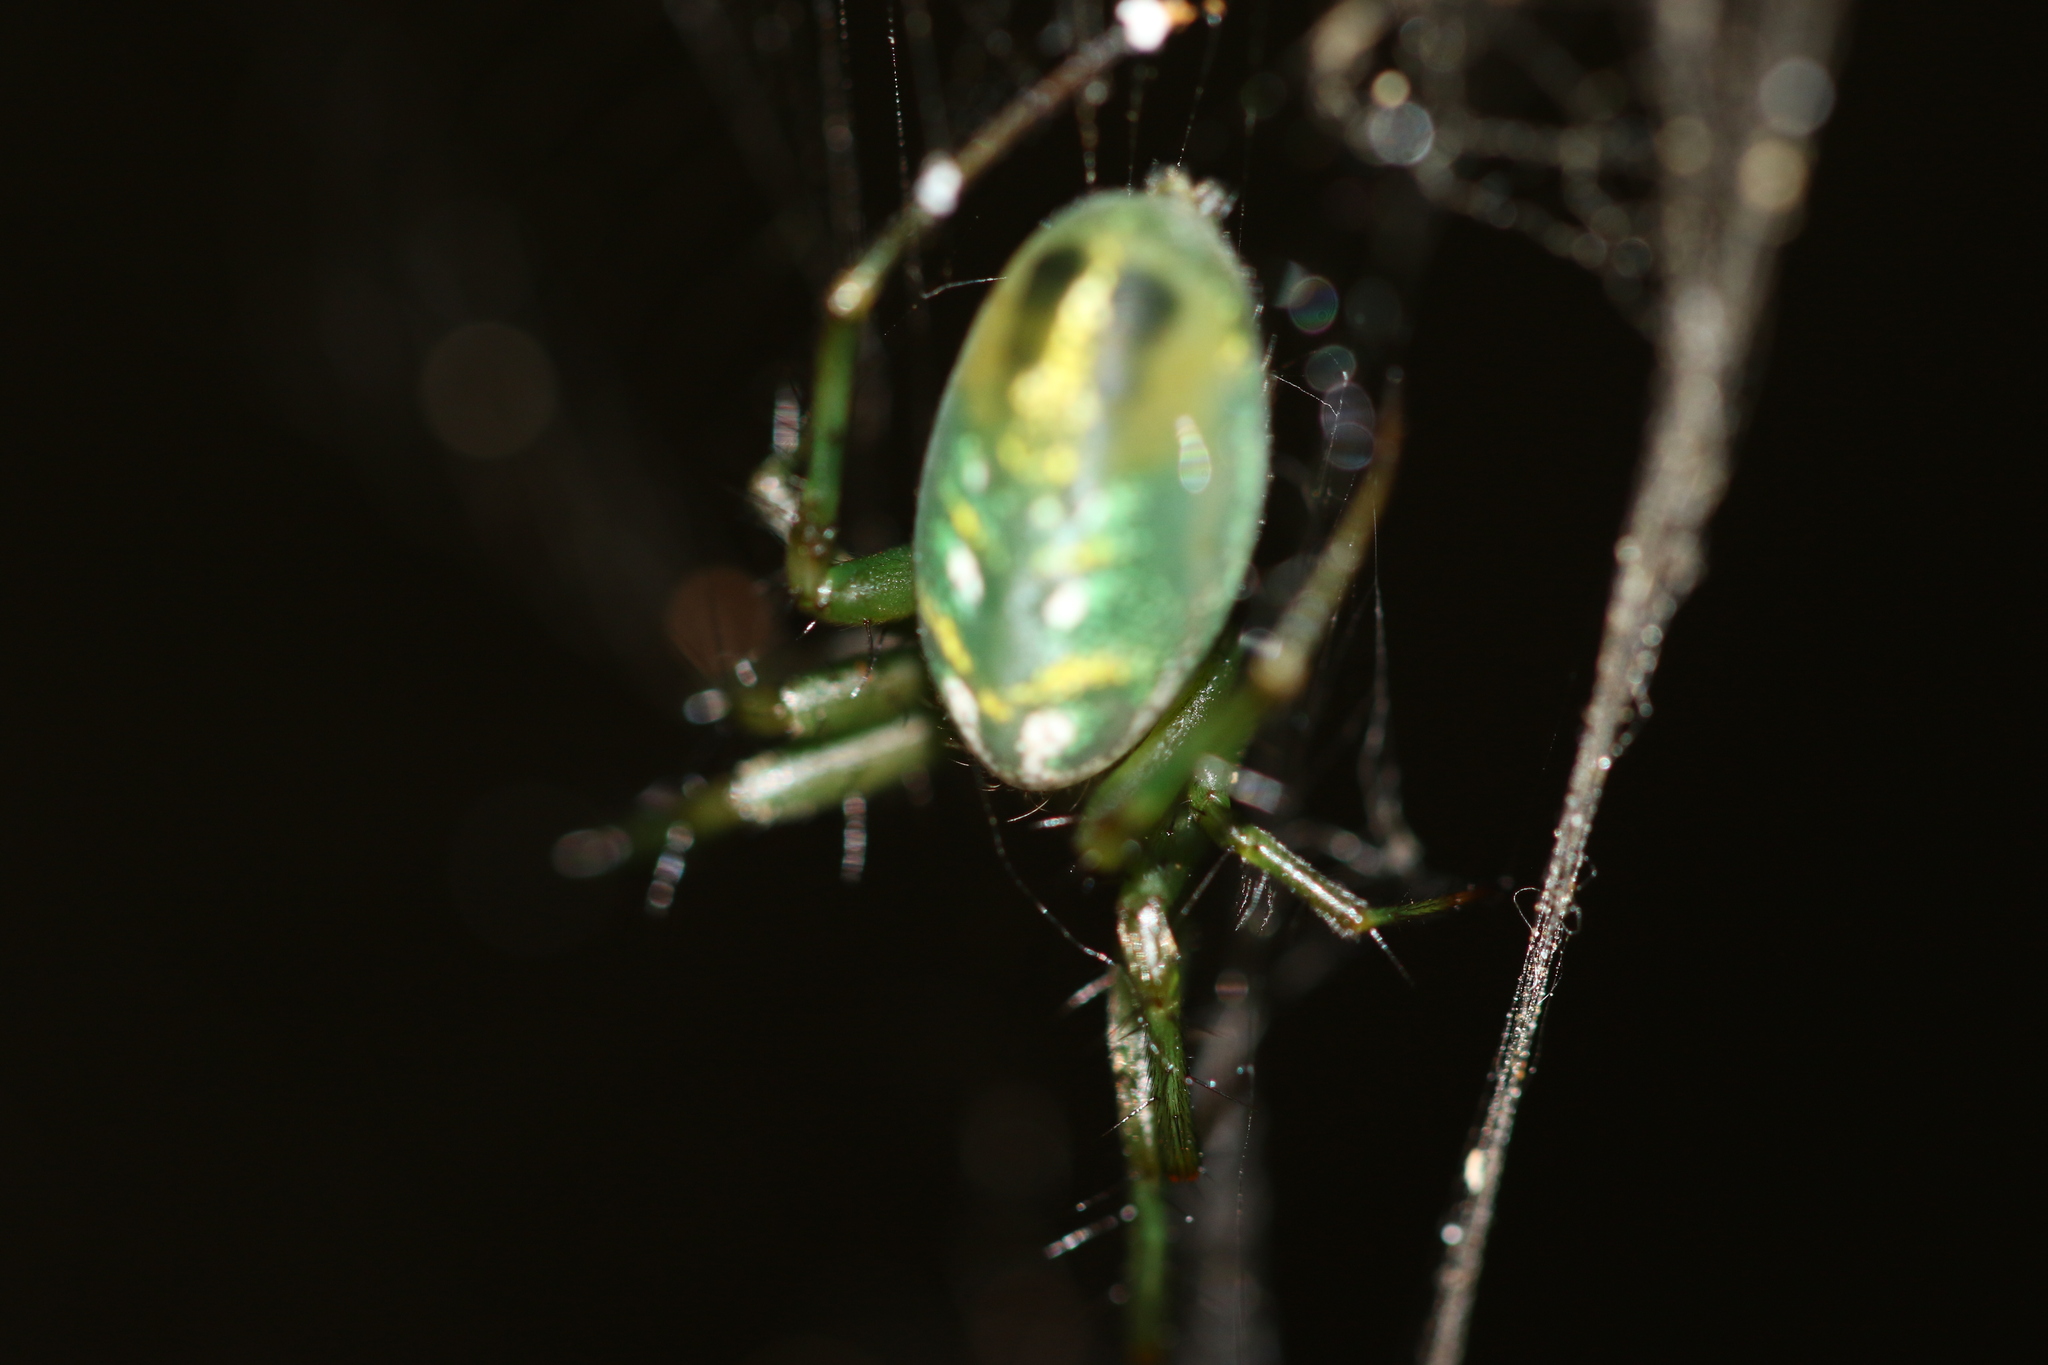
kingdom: Animalia
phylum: Arthropoda
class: Arachnida
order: Araneae
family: Araneidae
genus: Mangora
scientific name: Mangora strenua
